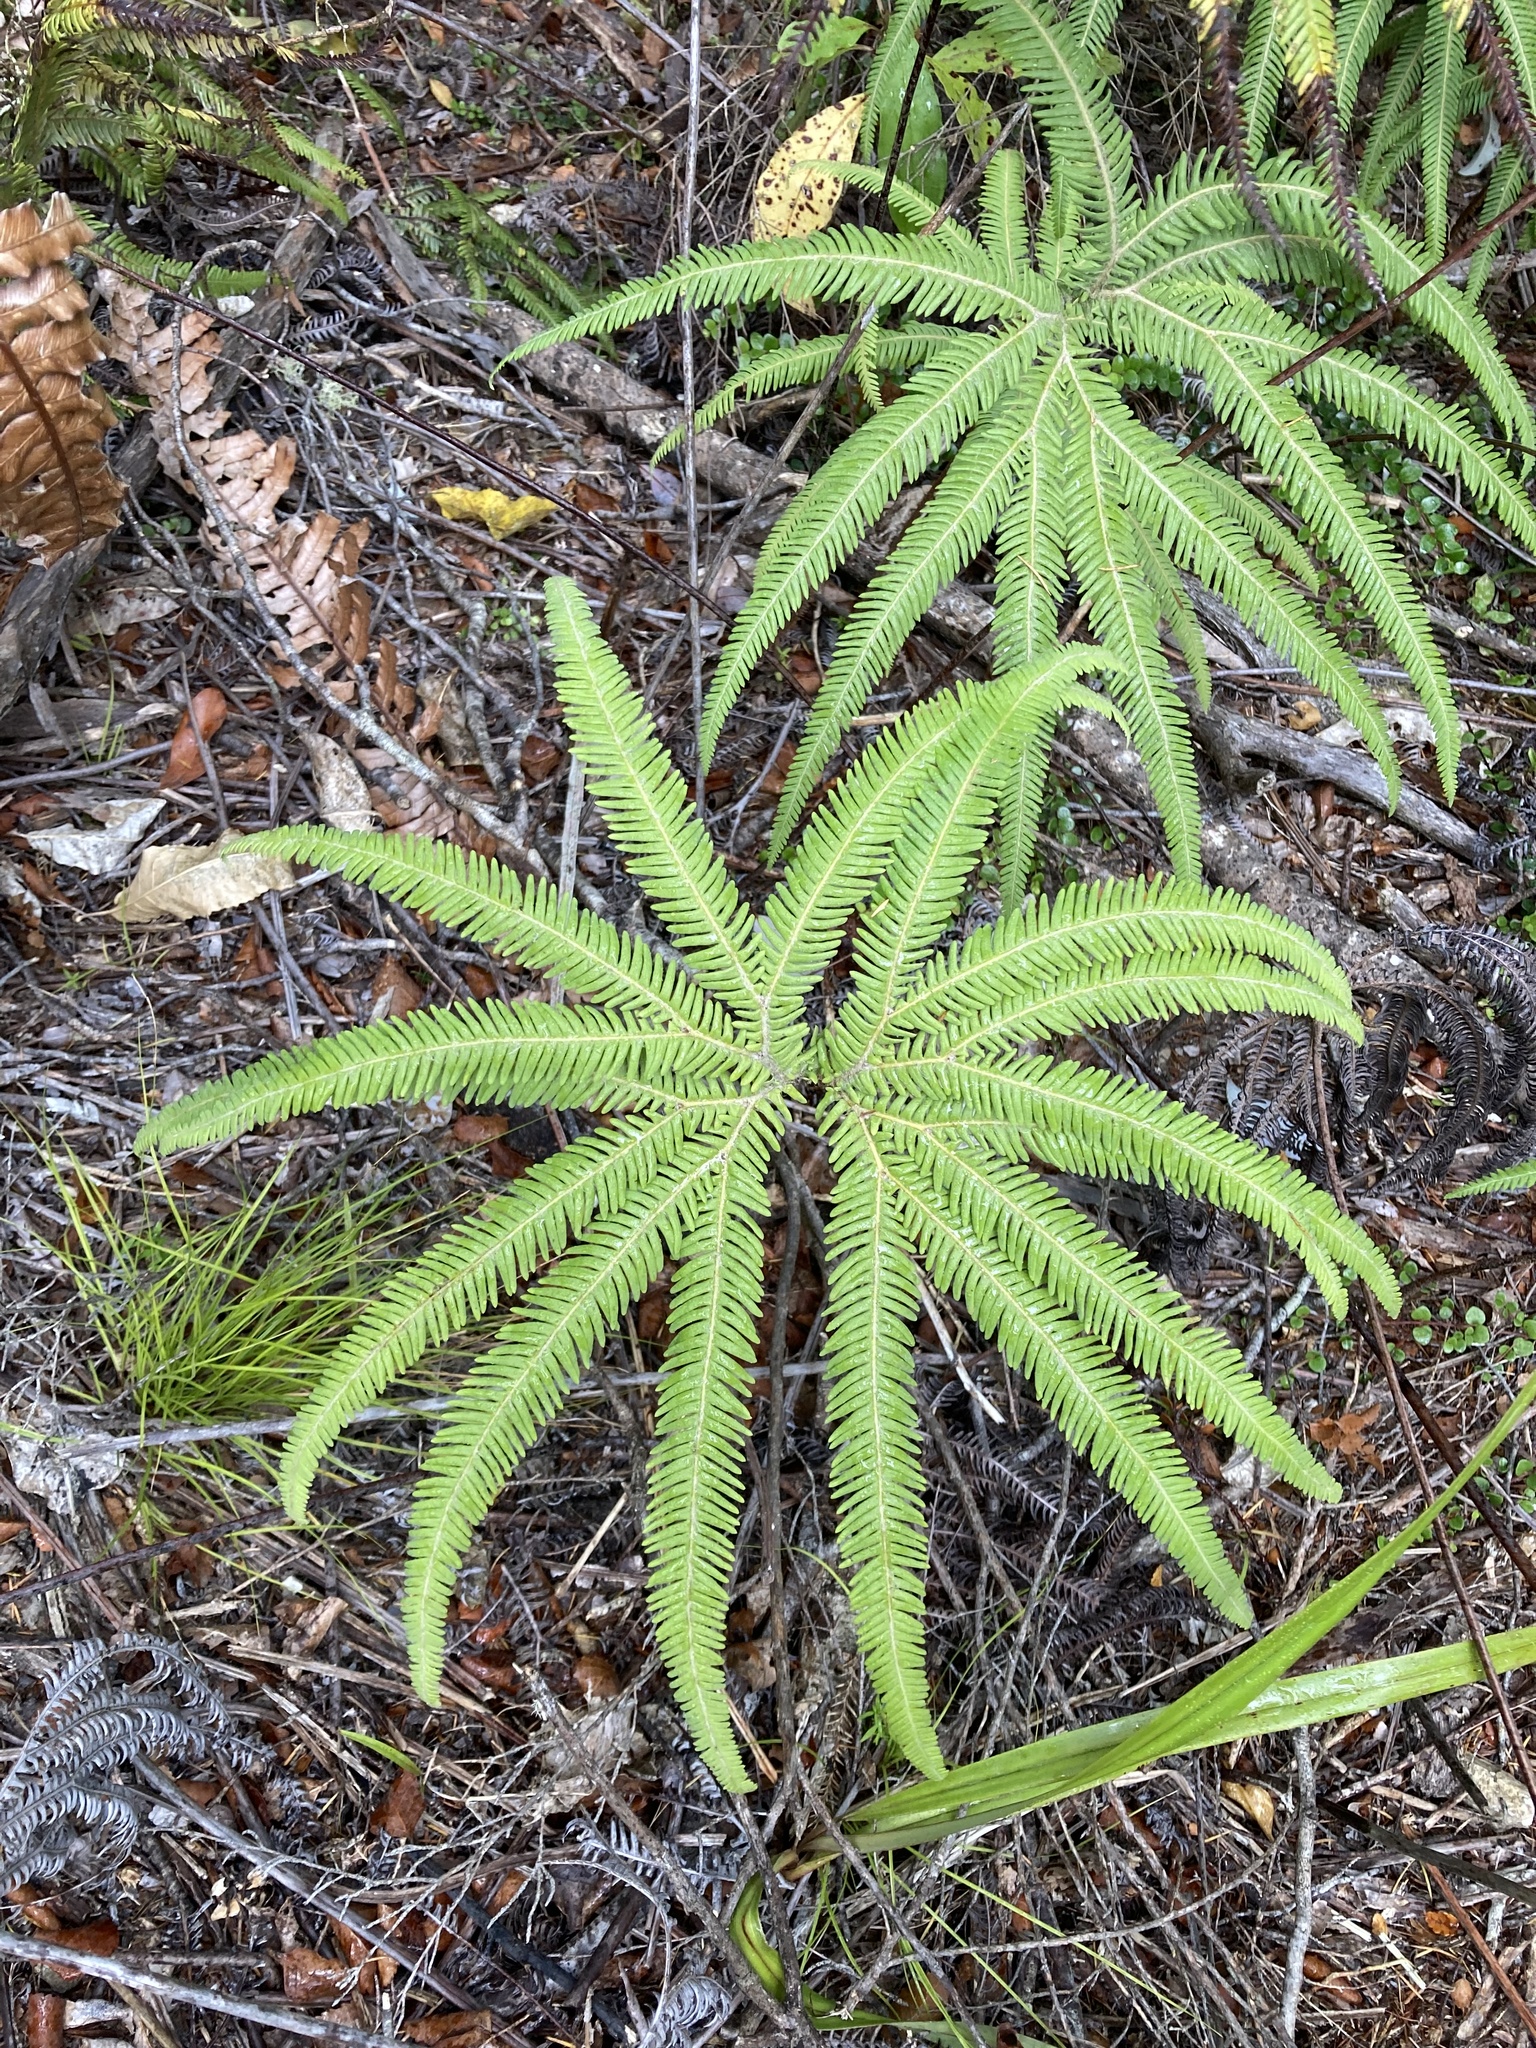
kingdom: Plantae
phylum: Tracheophyta
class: Polypodiopsida
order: Gleicheniales
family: Gleicheniaceae
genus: Sticherus
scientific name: Sticherus cunninghamii
